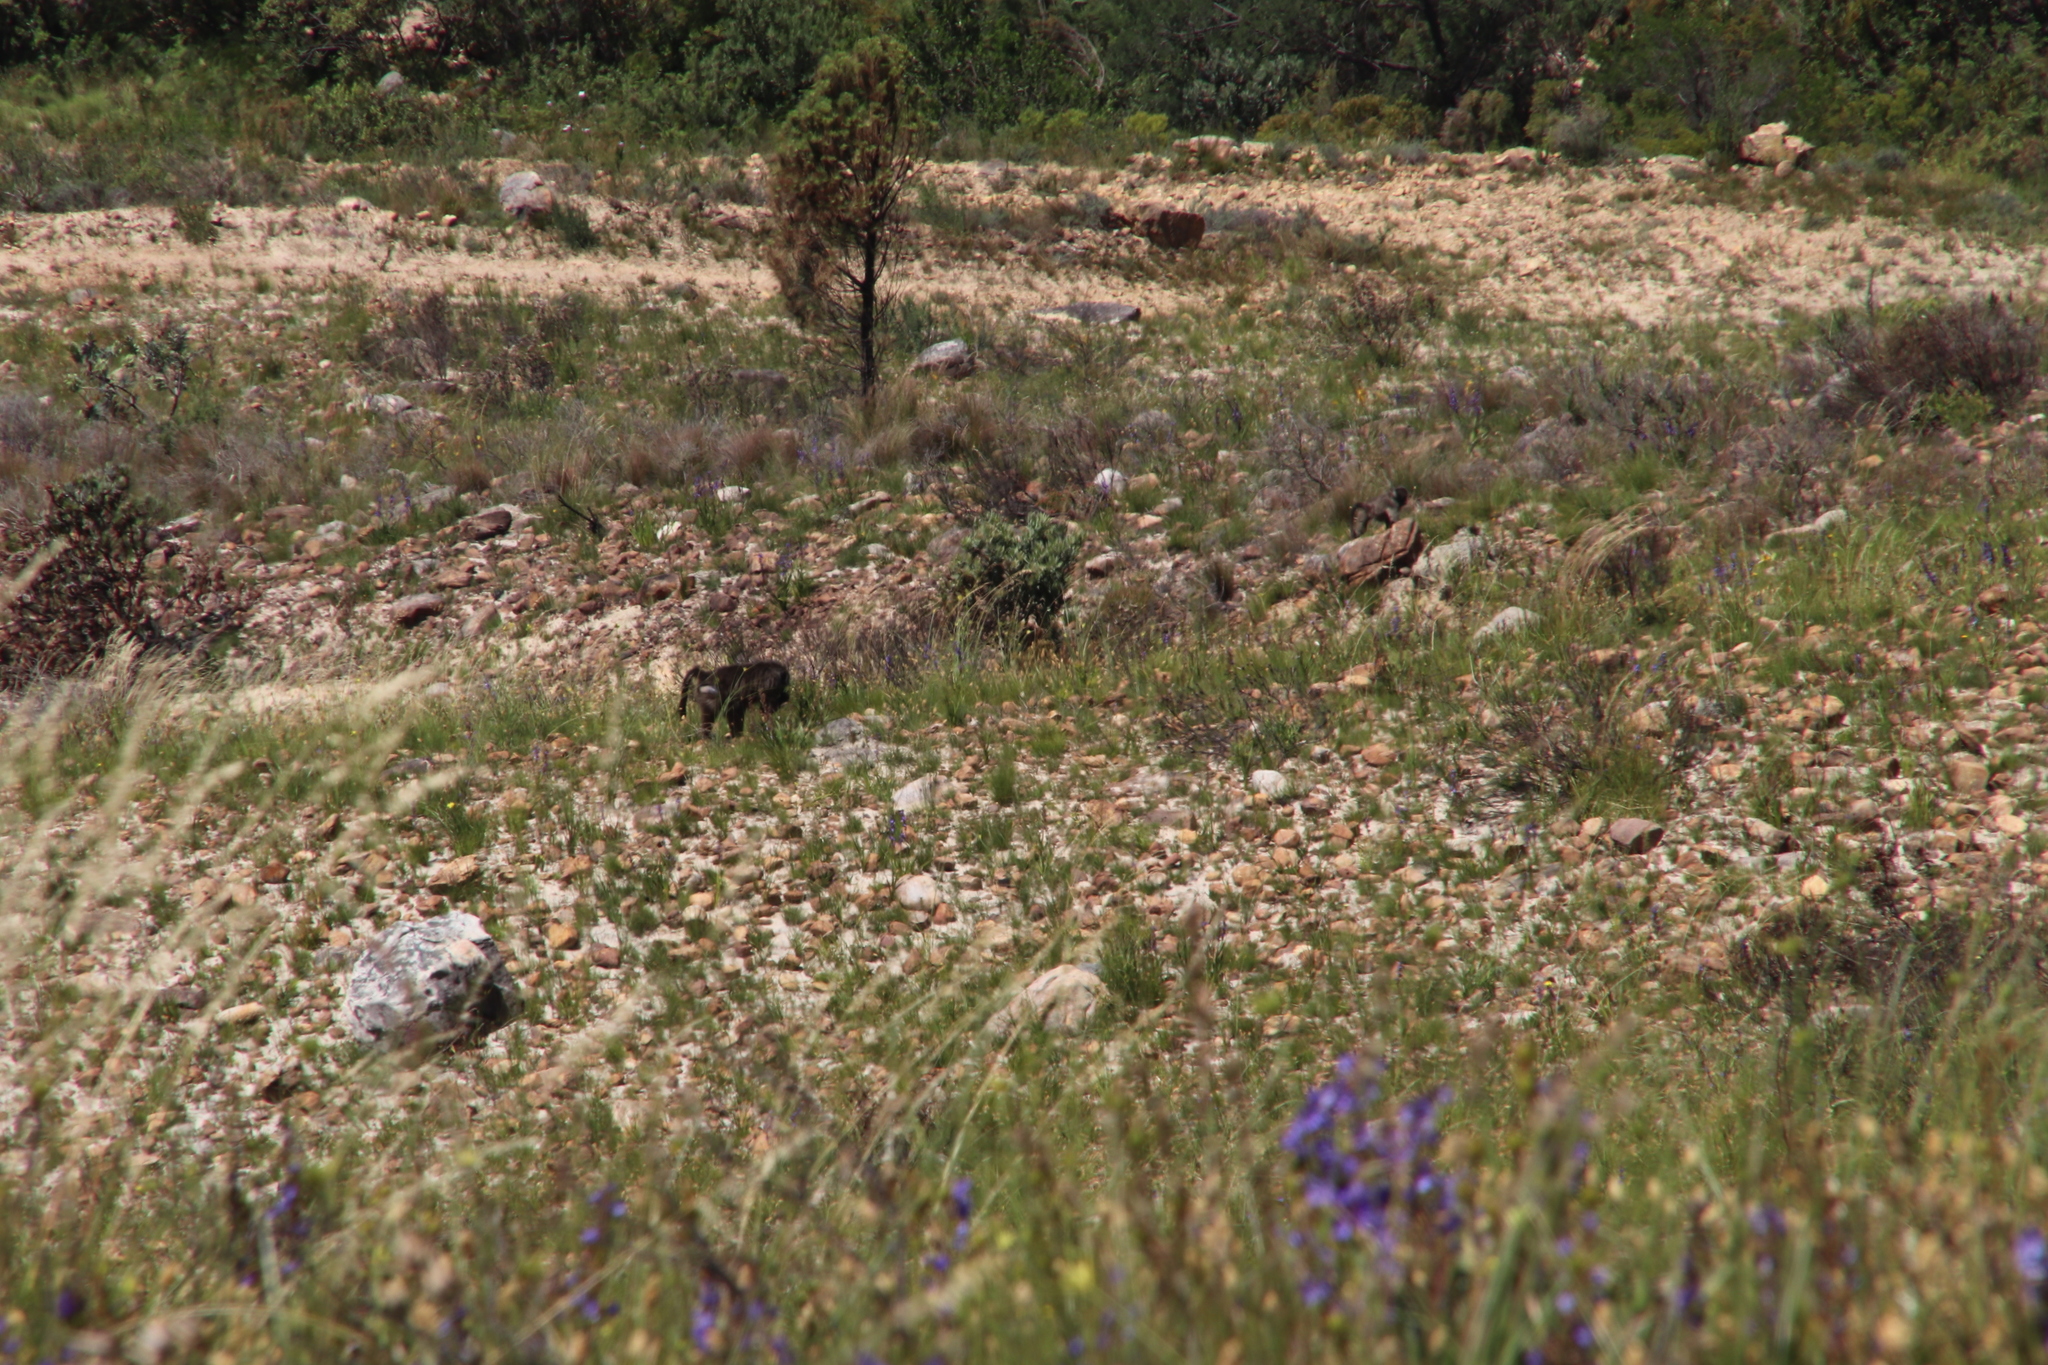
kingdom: Animalia
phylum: Chordata
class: Mammalia
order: Primates
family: Cercopithecidae
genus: Papio
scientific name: Papio ursinus
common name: Chacma baboon
